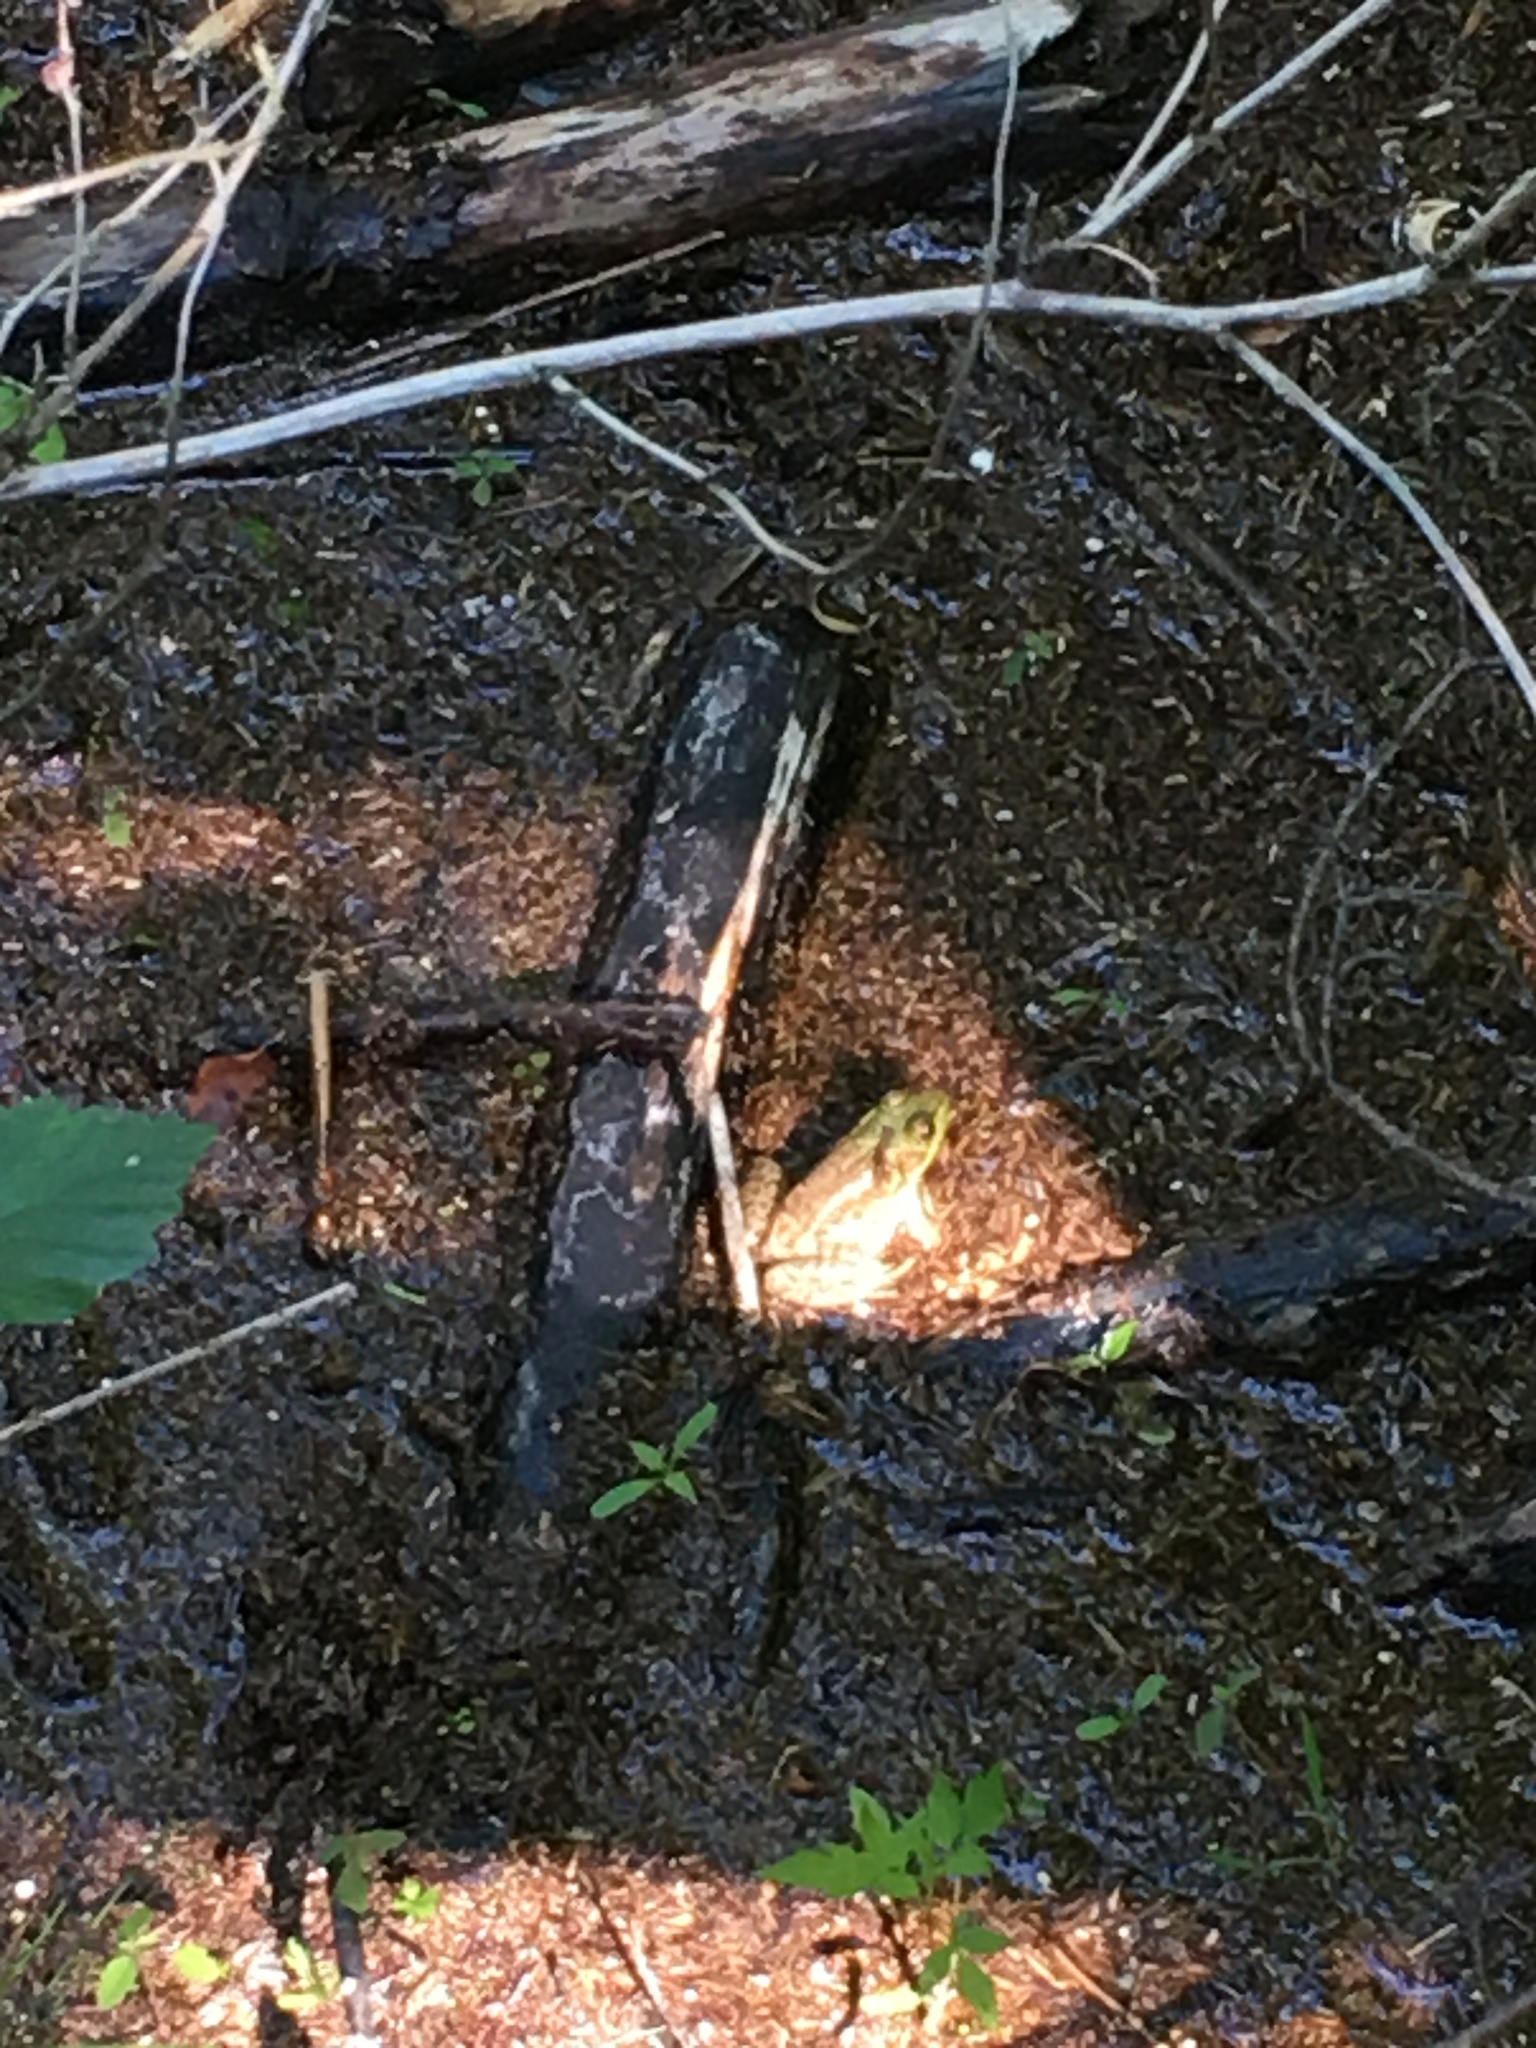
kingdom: Animalia
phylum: Chordata
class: Amphibia
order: Anura
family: Ranidae
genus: Lithobates
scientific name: Lithobates clamitans
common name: Green frog
